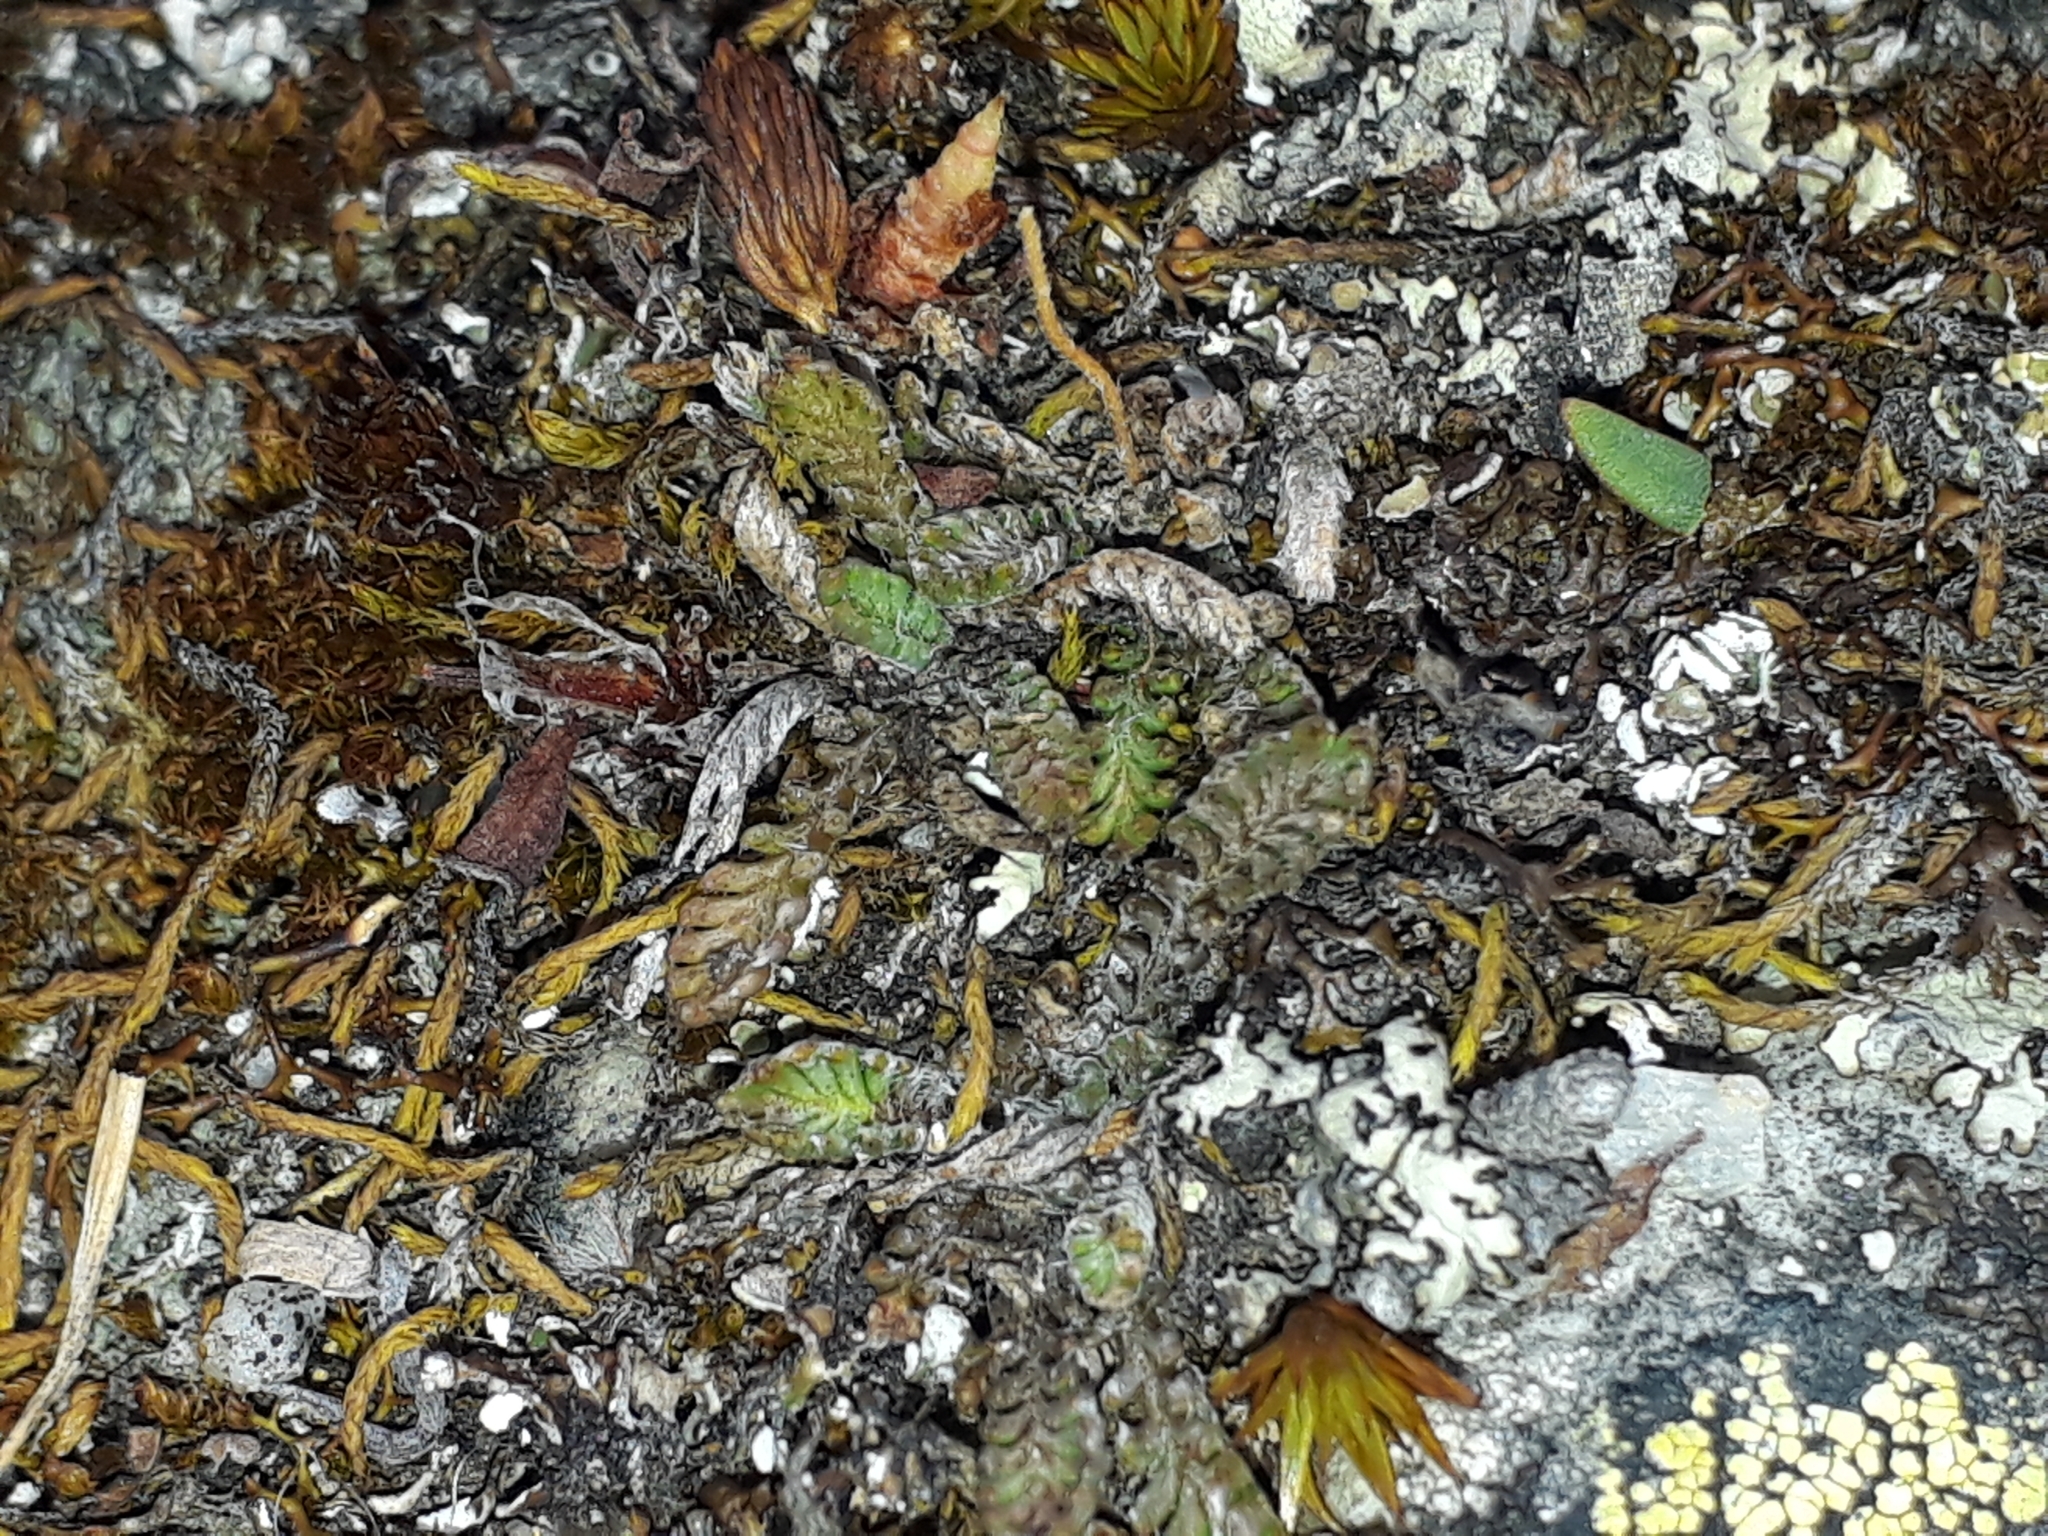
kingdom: Plantae
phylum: Tracheophyta
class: Magnoliopsida
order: Asterales
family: Asteraceae
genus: Leptinella
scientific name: Leptinella conjuncta
